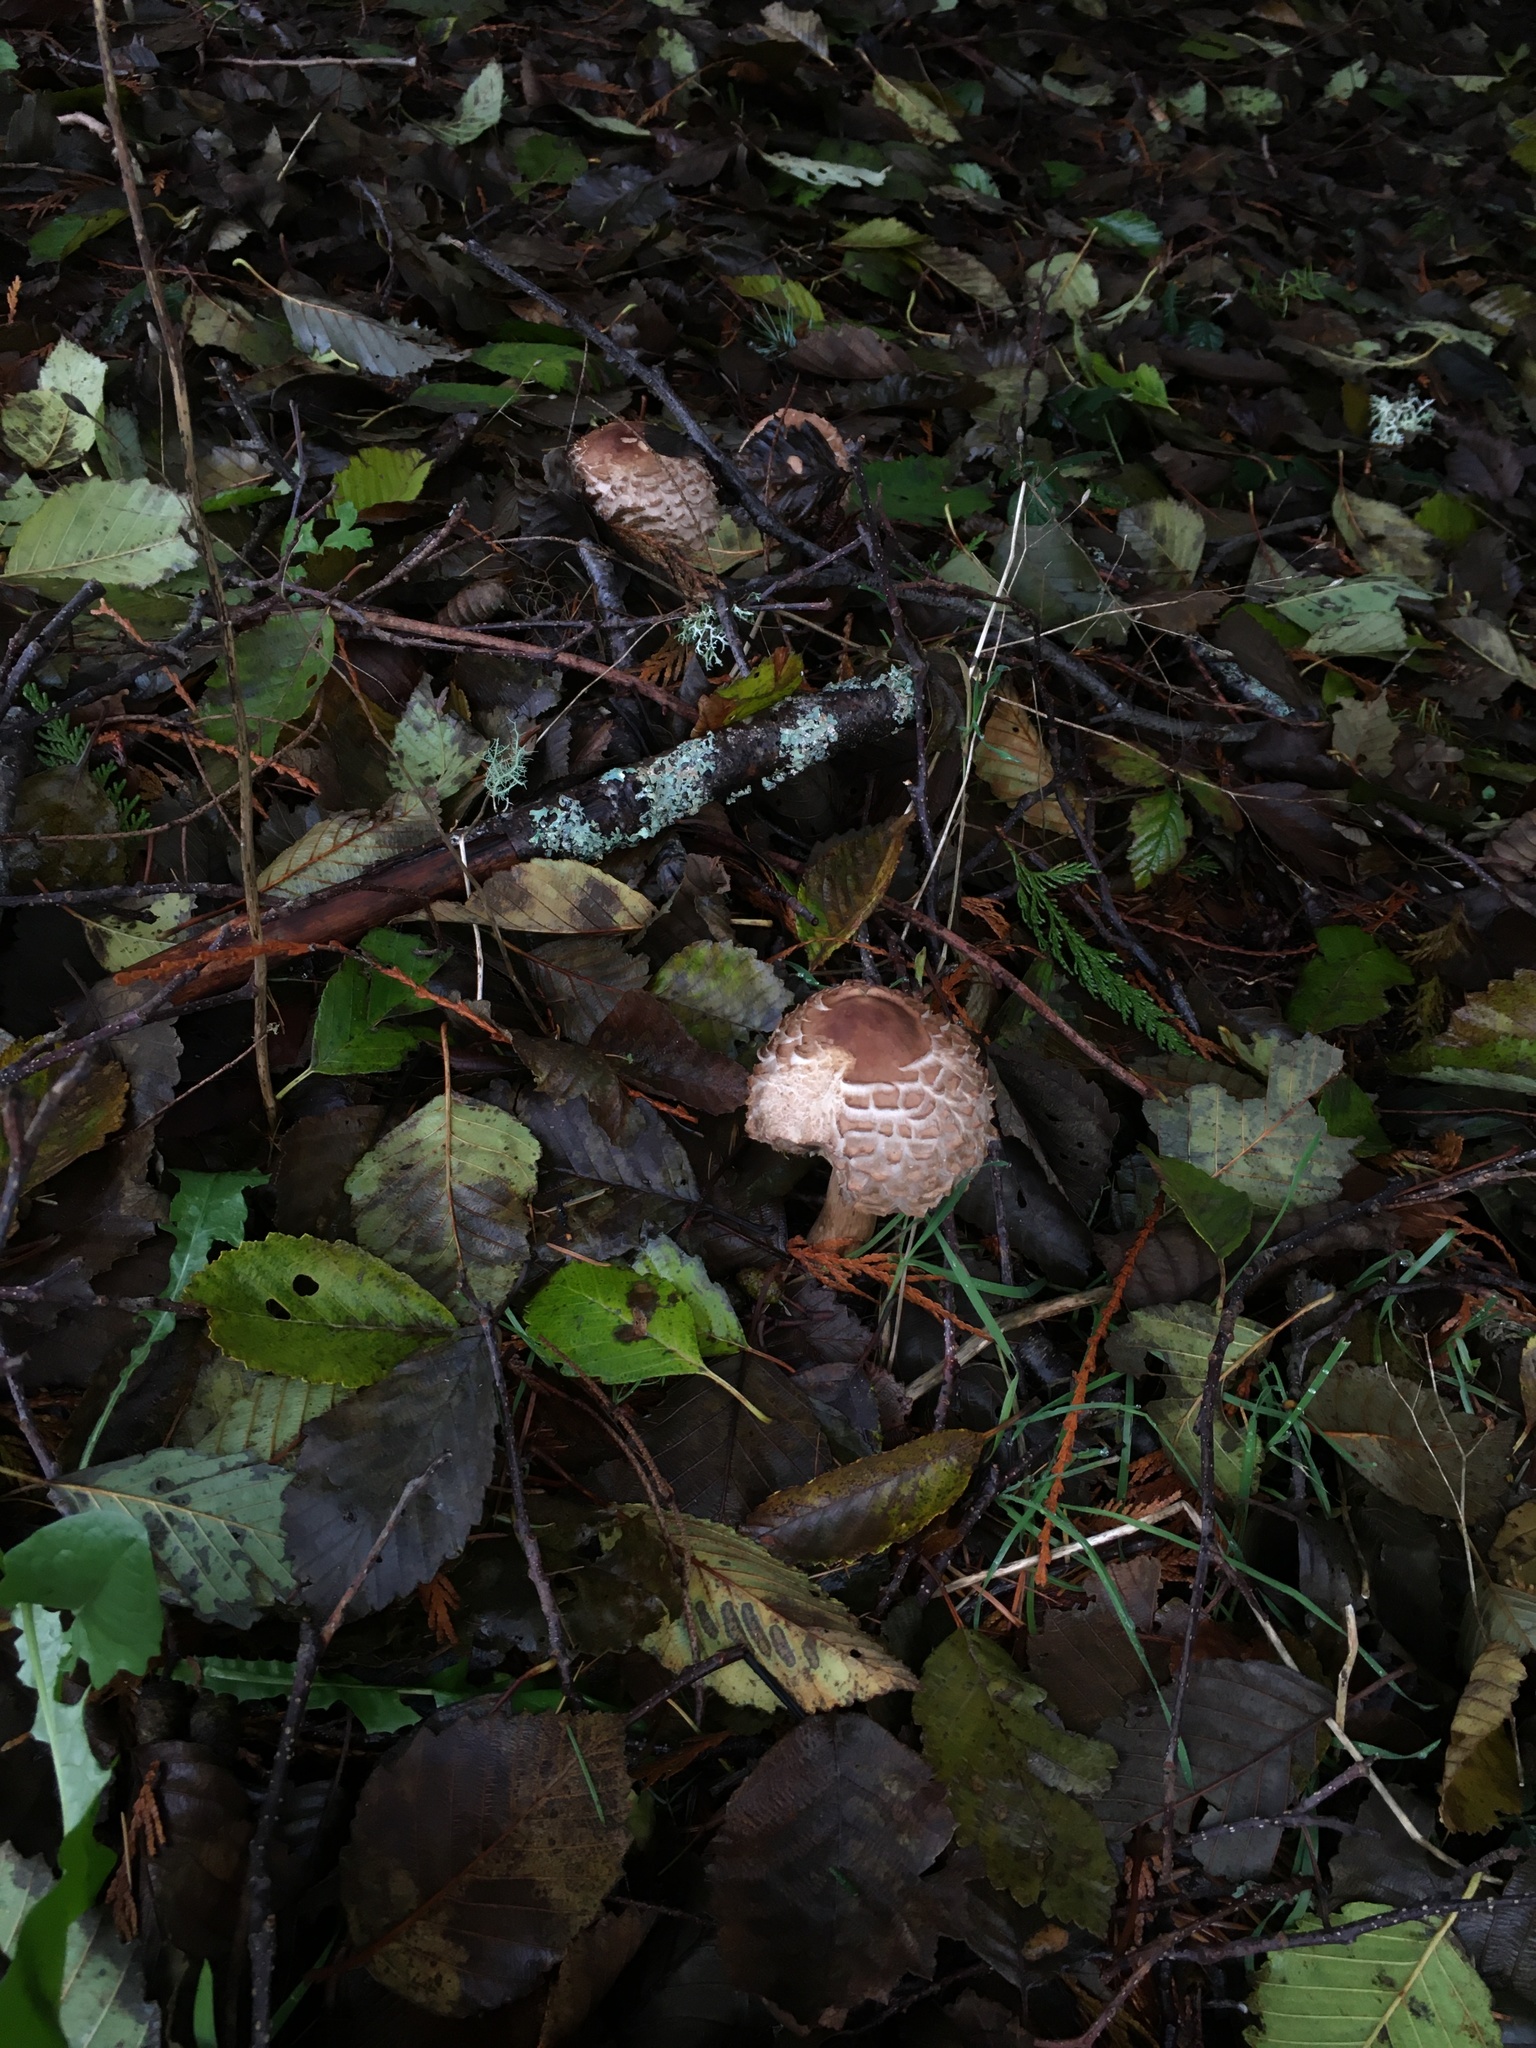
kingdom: Fungi
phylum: Basidiomycota
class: Agaricomycetes
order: Agaricales
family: Agaricaceae
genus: Chlorophyllum
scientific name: Chlorophyllum olivieri
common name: Conifer parasol
